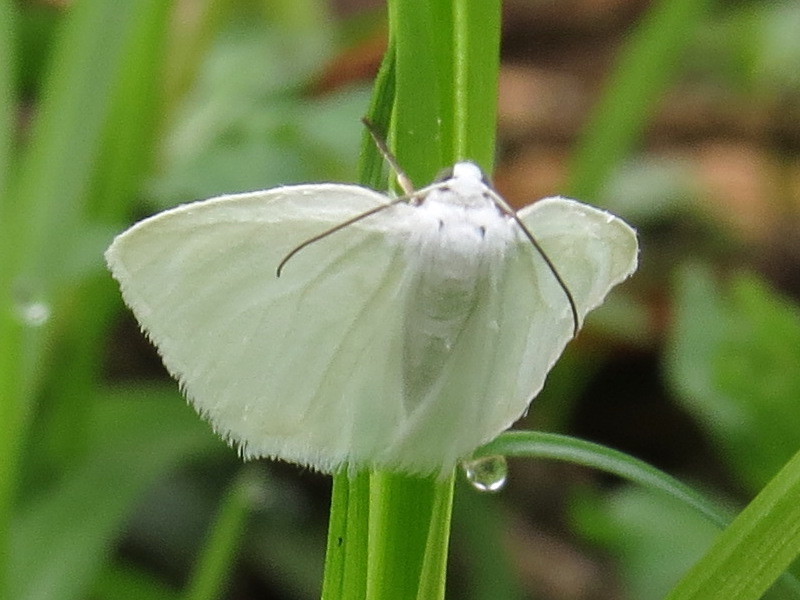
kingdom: Animalia
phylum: Arthropoda
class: Insecta
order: Lepidoptera
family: Geometridae
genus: Lomographa
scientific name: Lomographa vestaliata
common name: White spring moth
